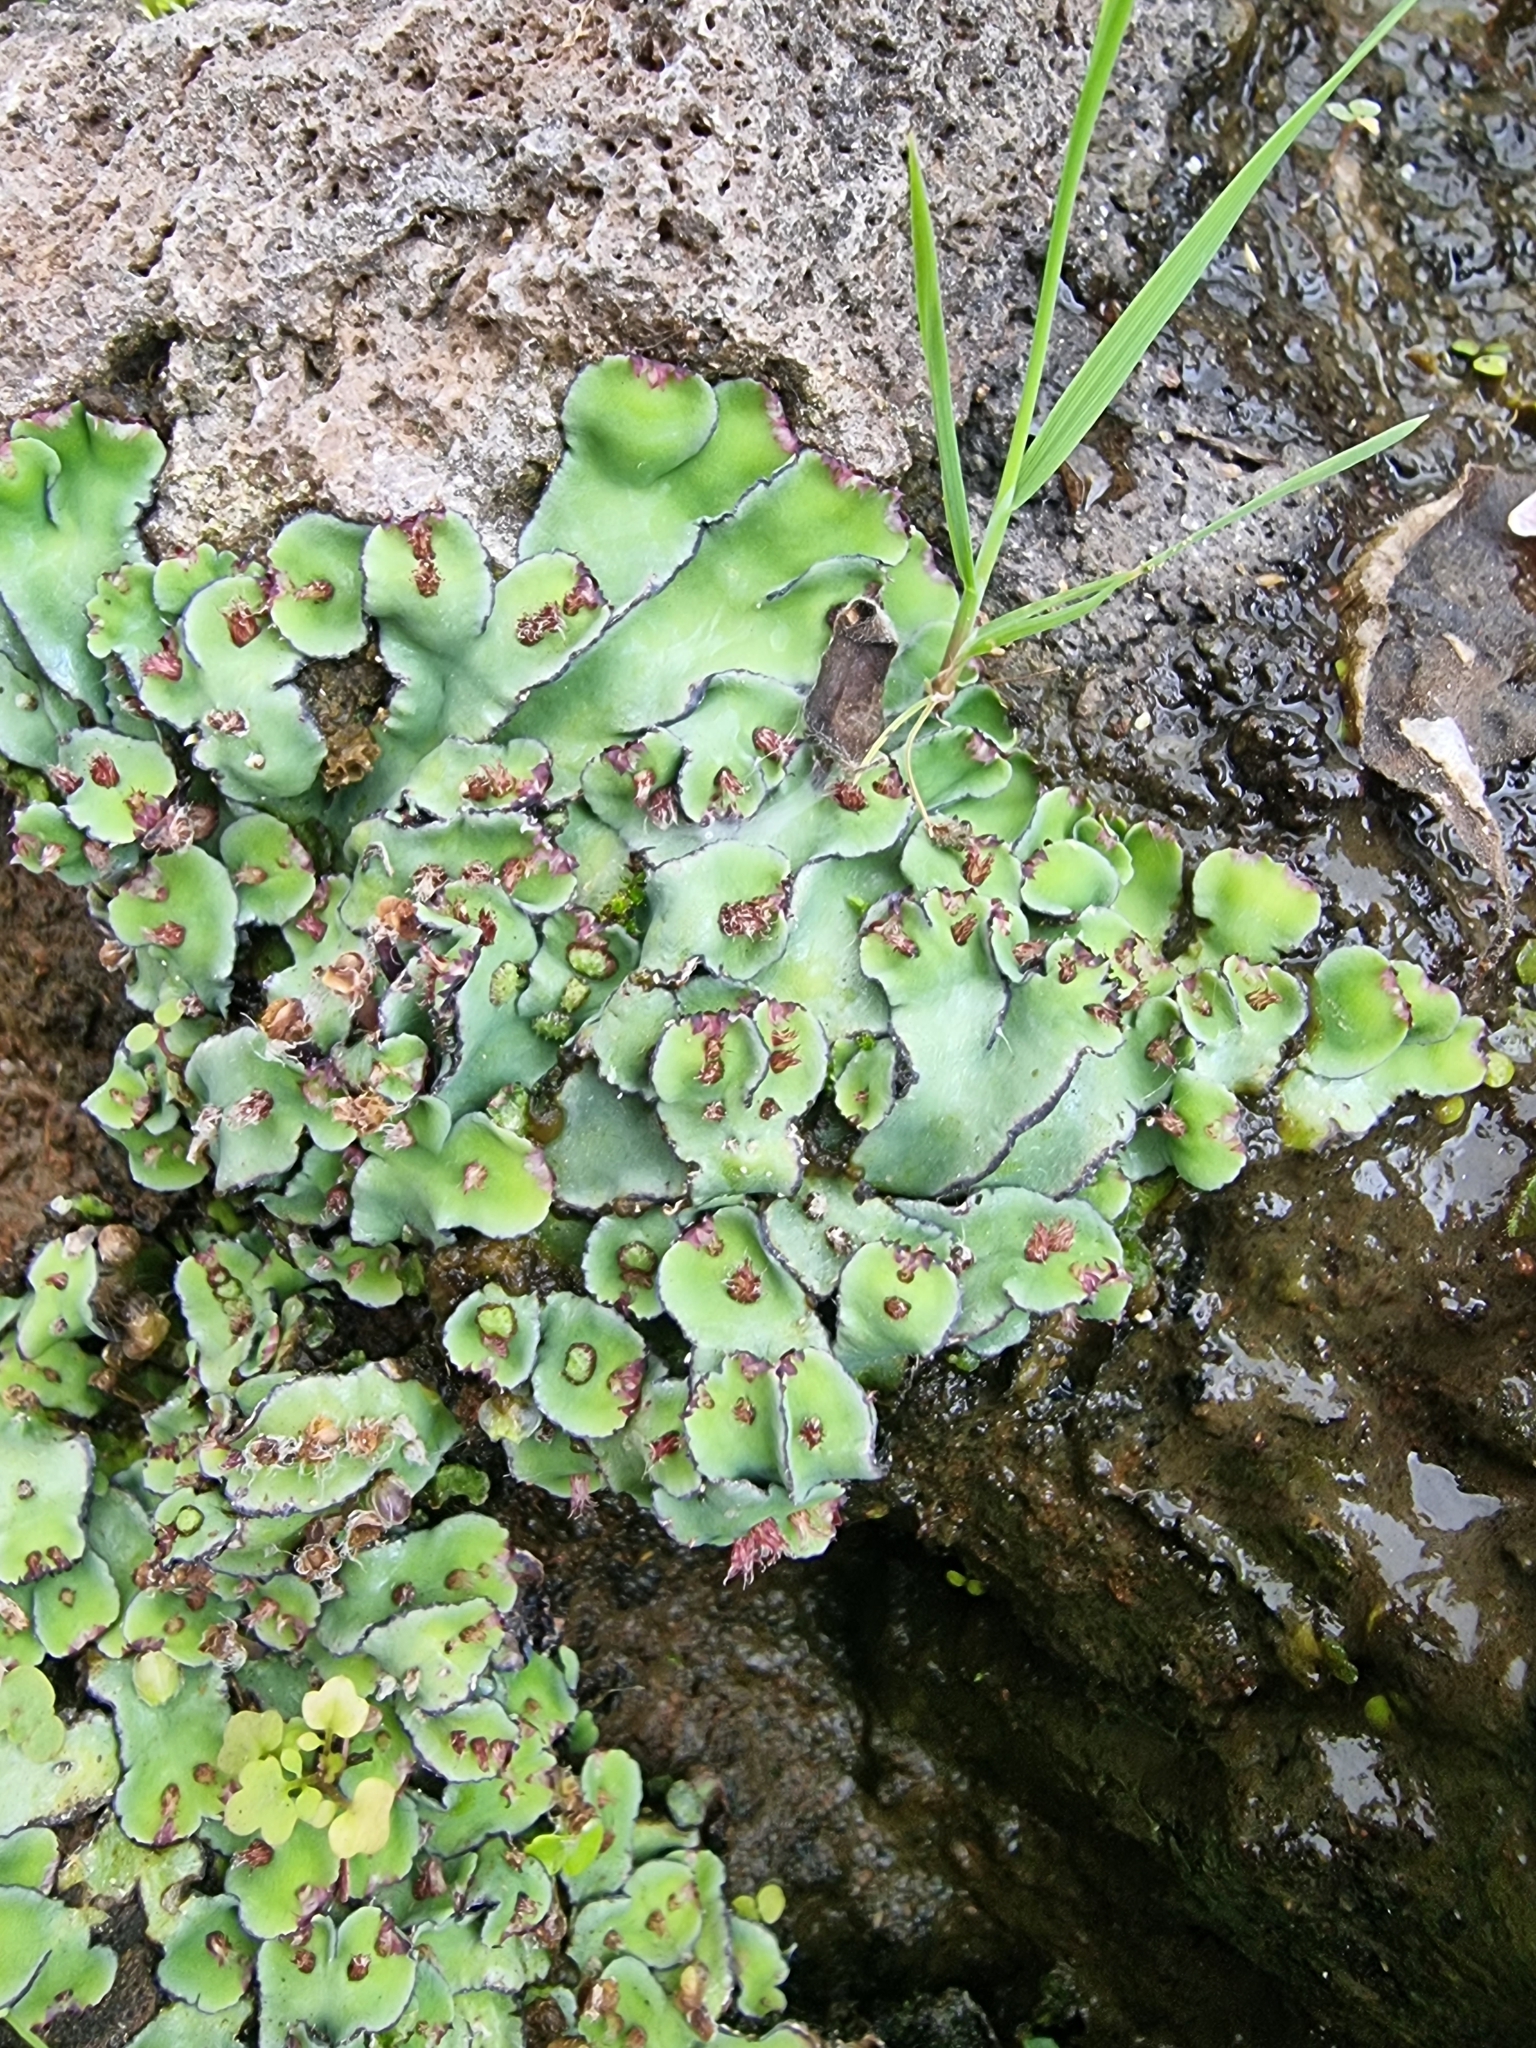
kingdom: Plantae
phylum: Marchantiophyta
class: Marchantiopsida
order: Marchantiales
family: Aytoniaceae
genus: Plagiochasma
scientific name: Plagiochasma rupestre
